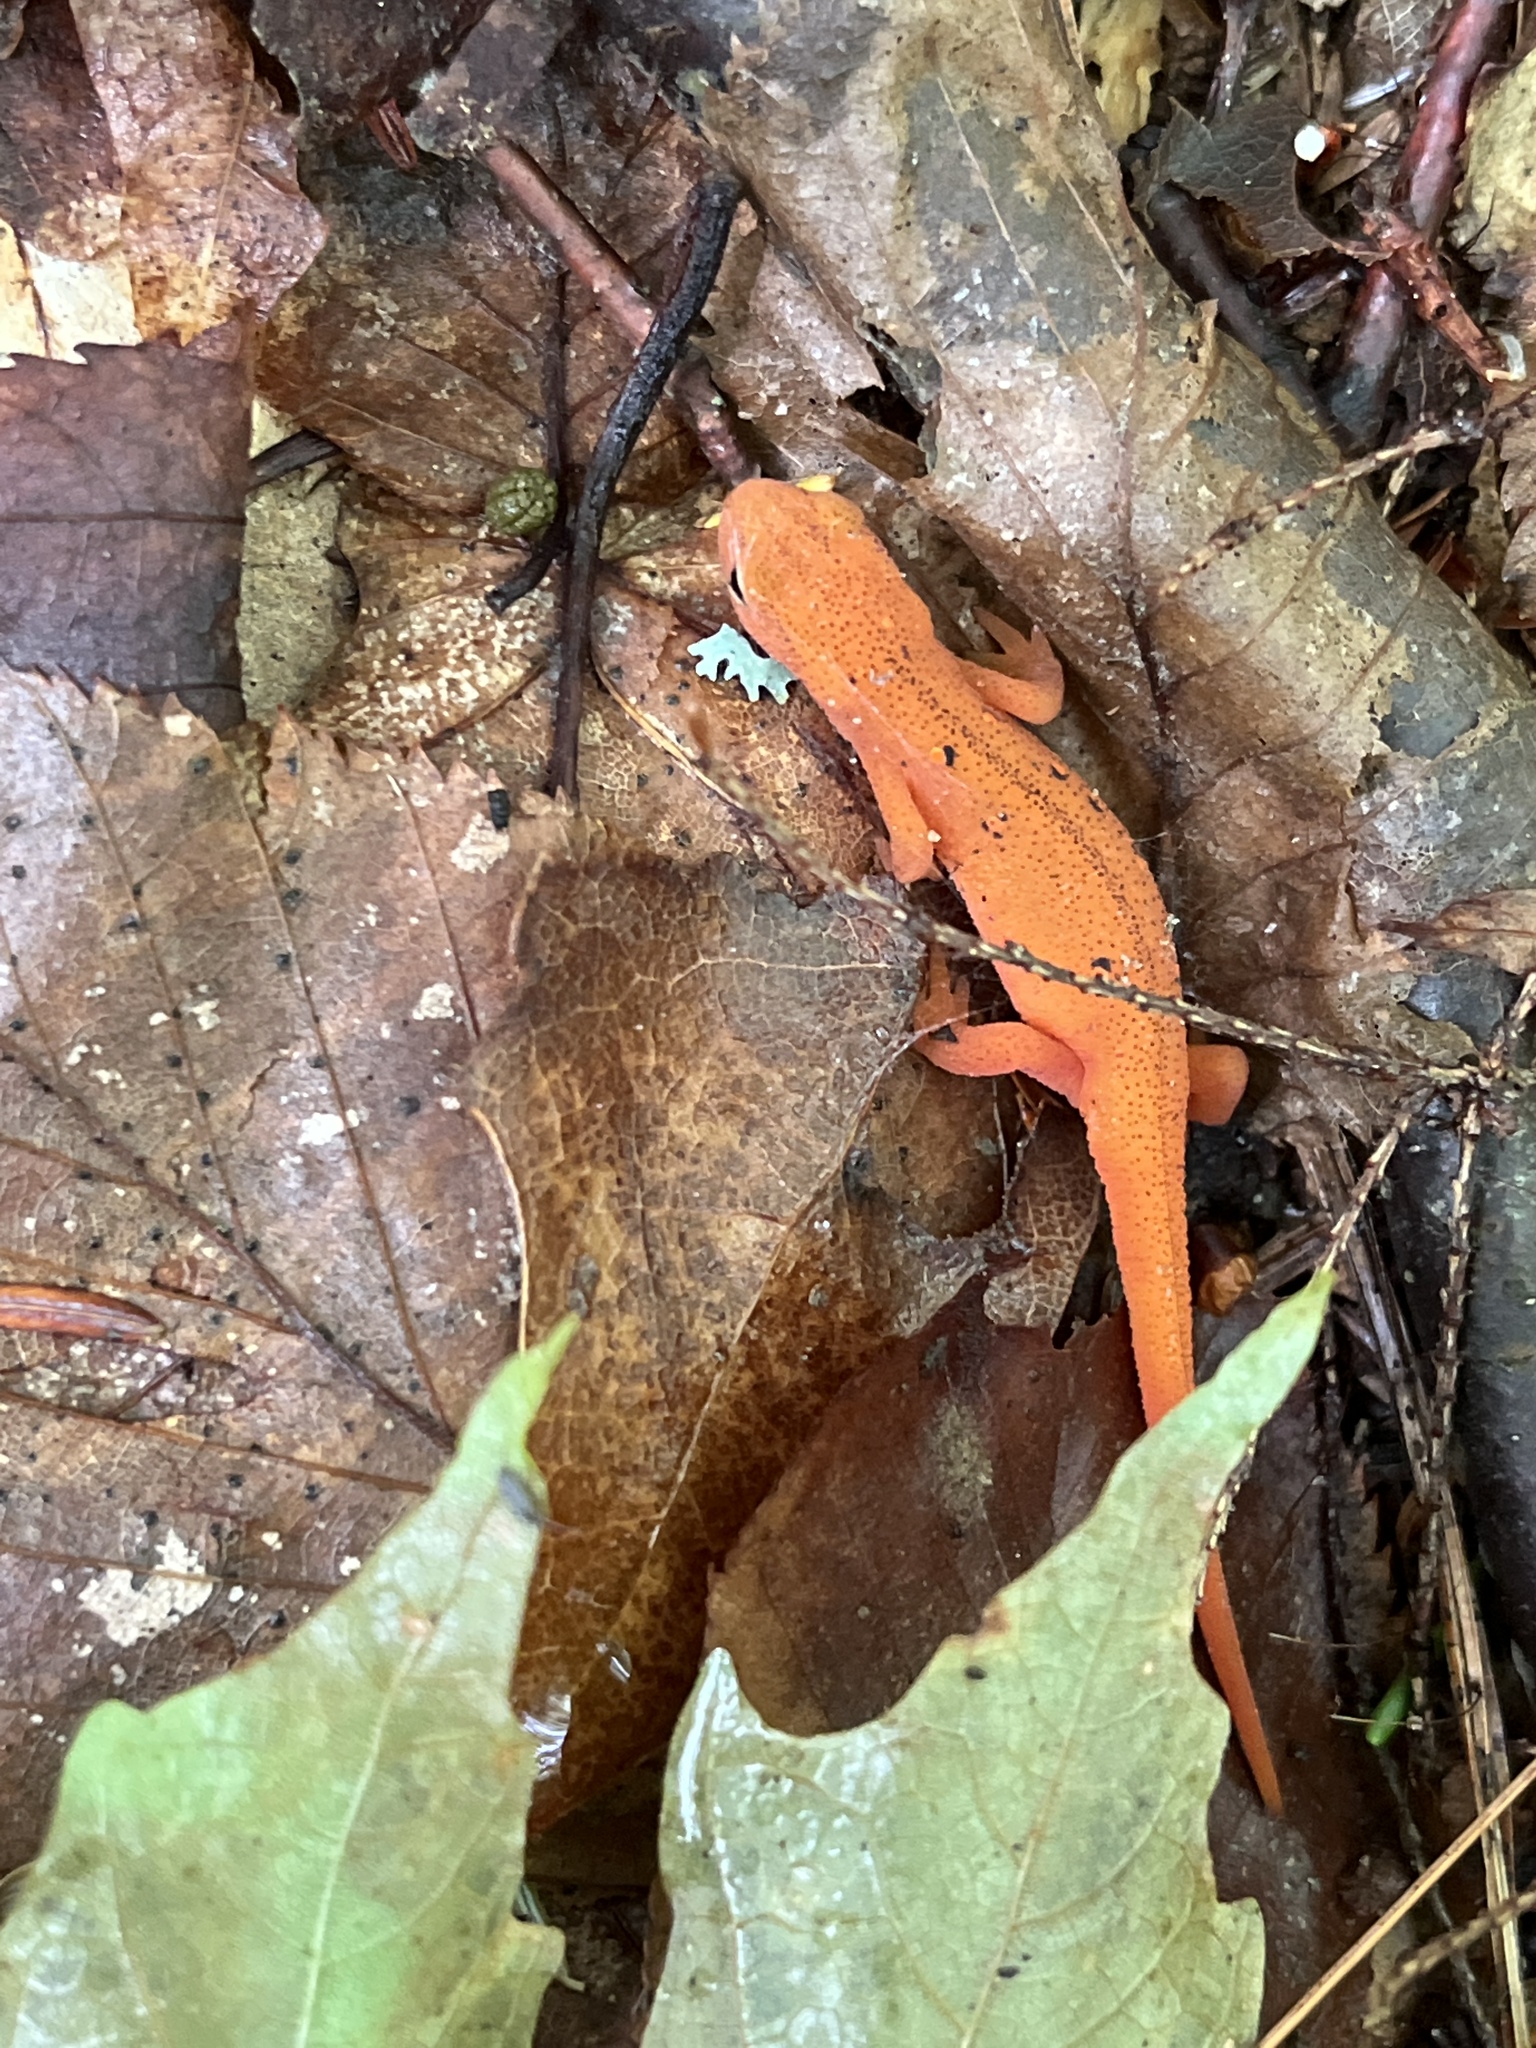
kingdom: Animalia
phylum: Chordata
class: Amphibia
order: Caudata
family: Salamandridae
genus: Notophthalmus
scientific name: Notophthalmus viridescens
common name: Eastern newt
